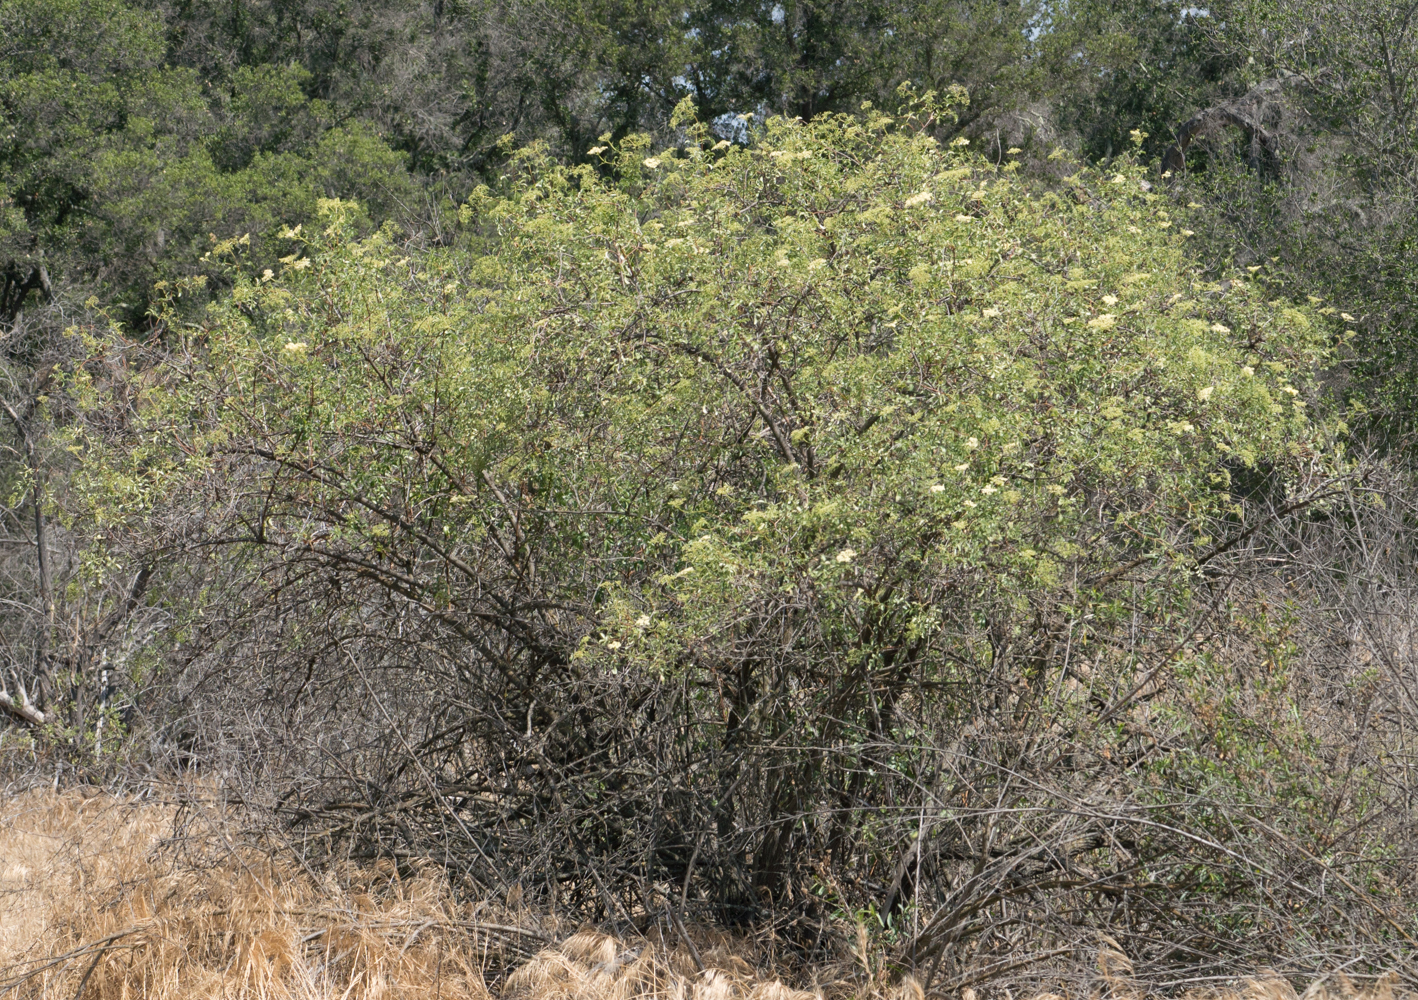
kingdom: Plantae
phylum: Tracheophyta
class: Magnoliopsida
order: Dipsacales
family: Viburnaceae
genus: Sambucus
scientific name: Sambucus cerulea
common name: Blue elder
